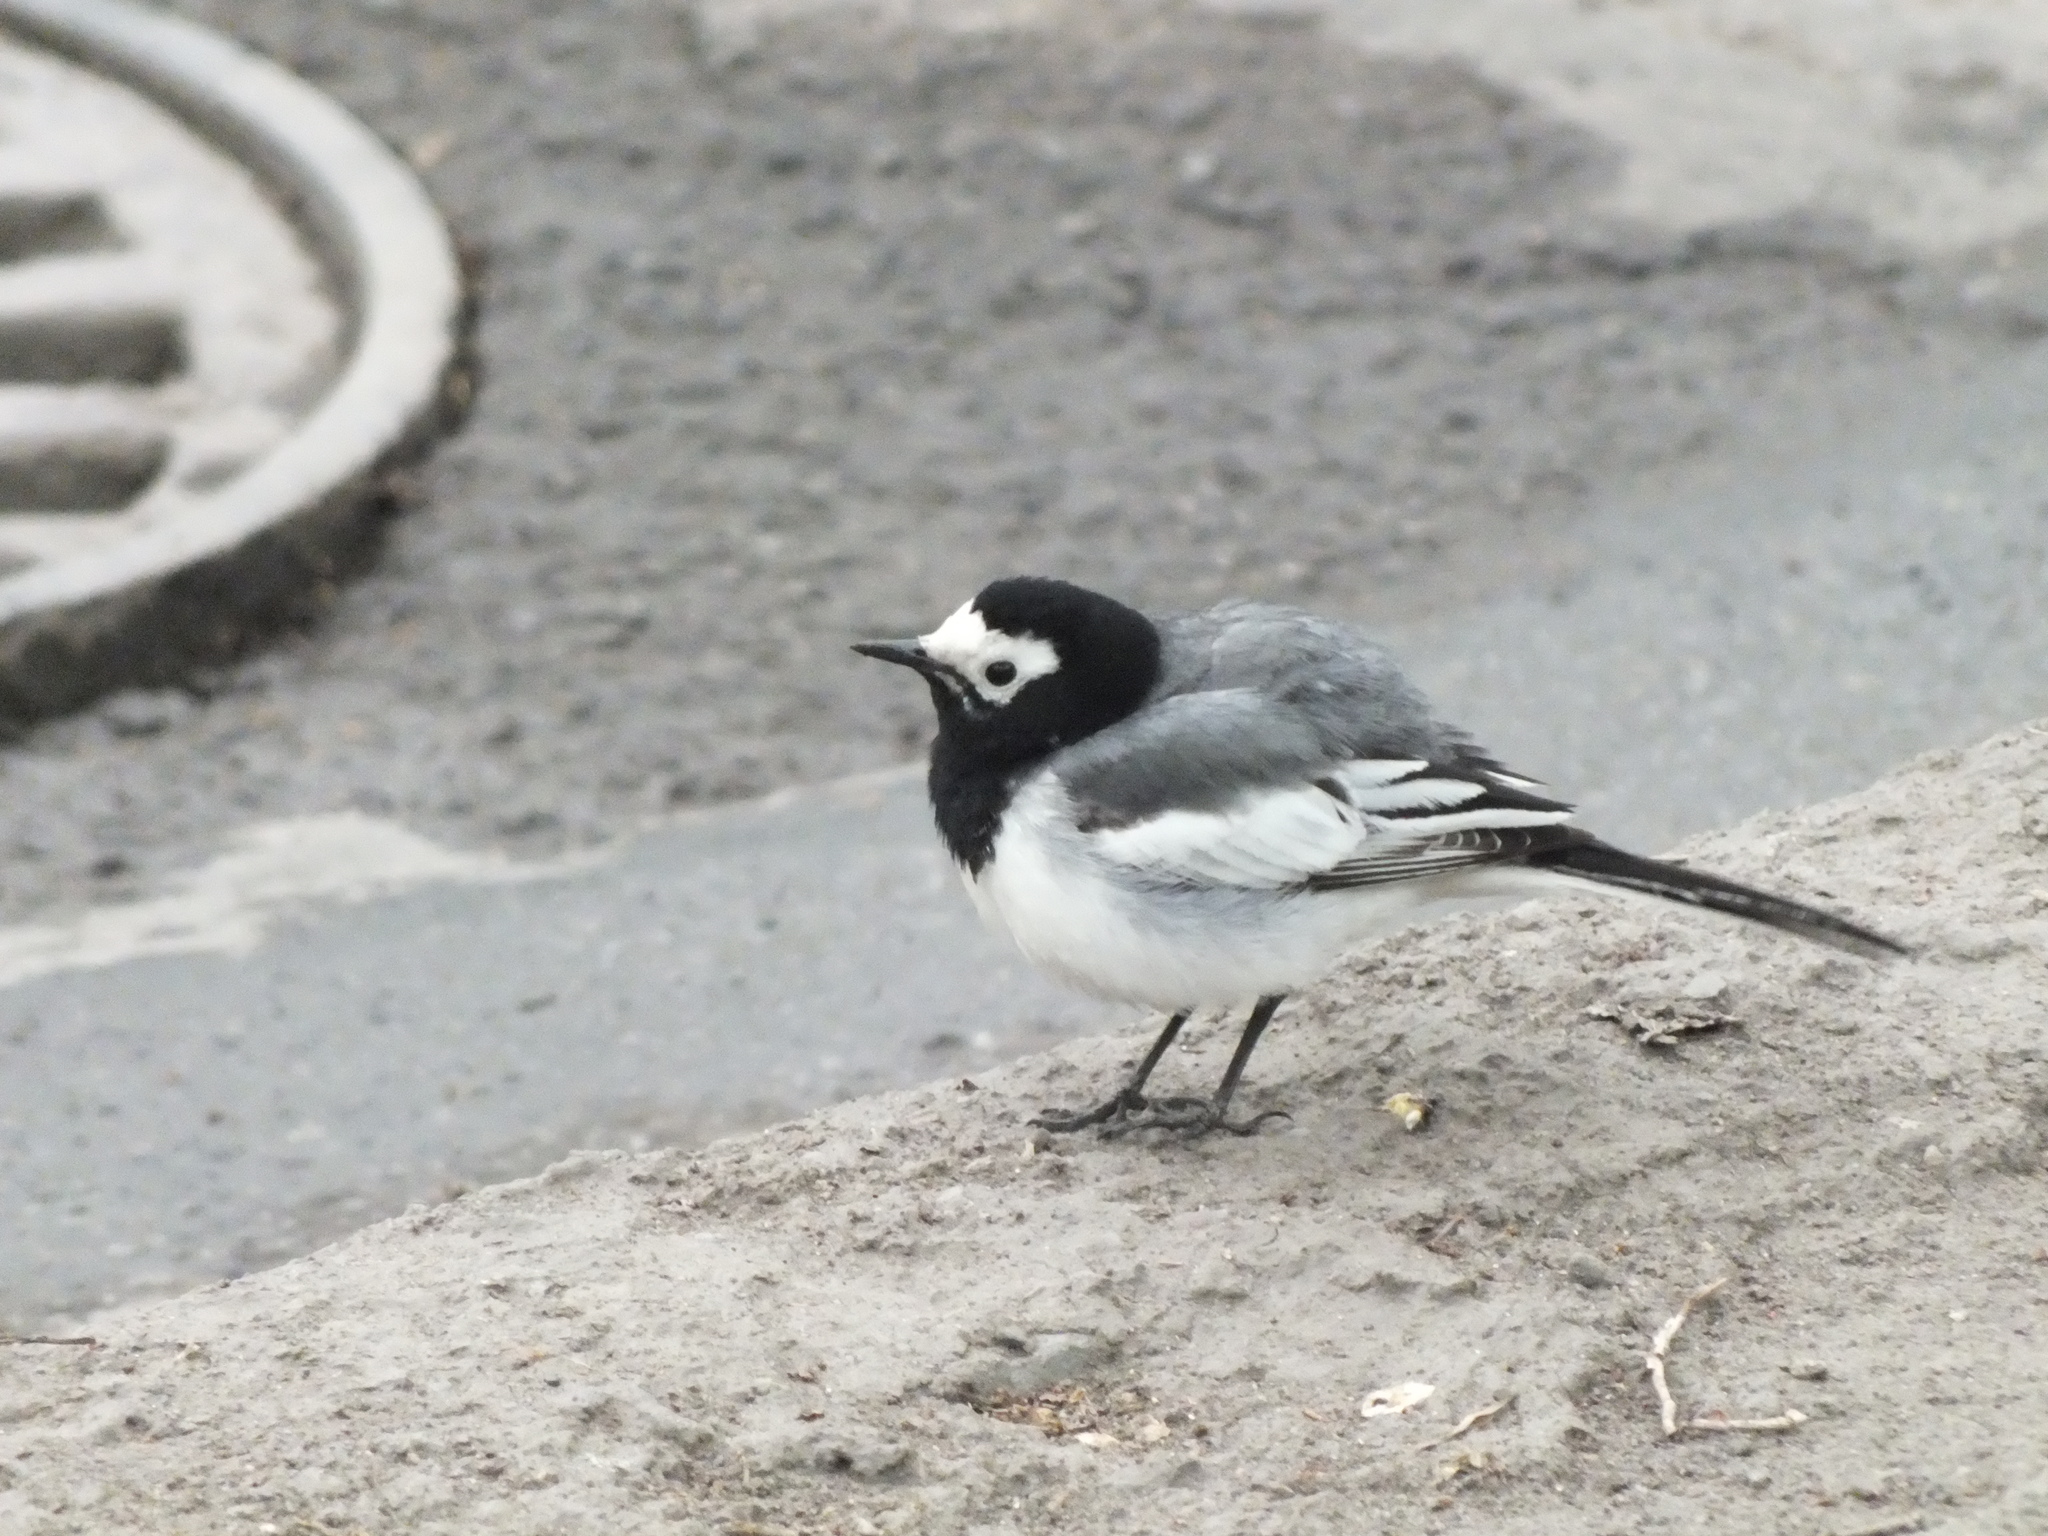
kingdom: Animalia
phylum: Chordata
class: Aves
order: Passeriformes
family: Motacillidae
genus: Motacilla
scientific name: Motacilla alba
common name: White wagtail
